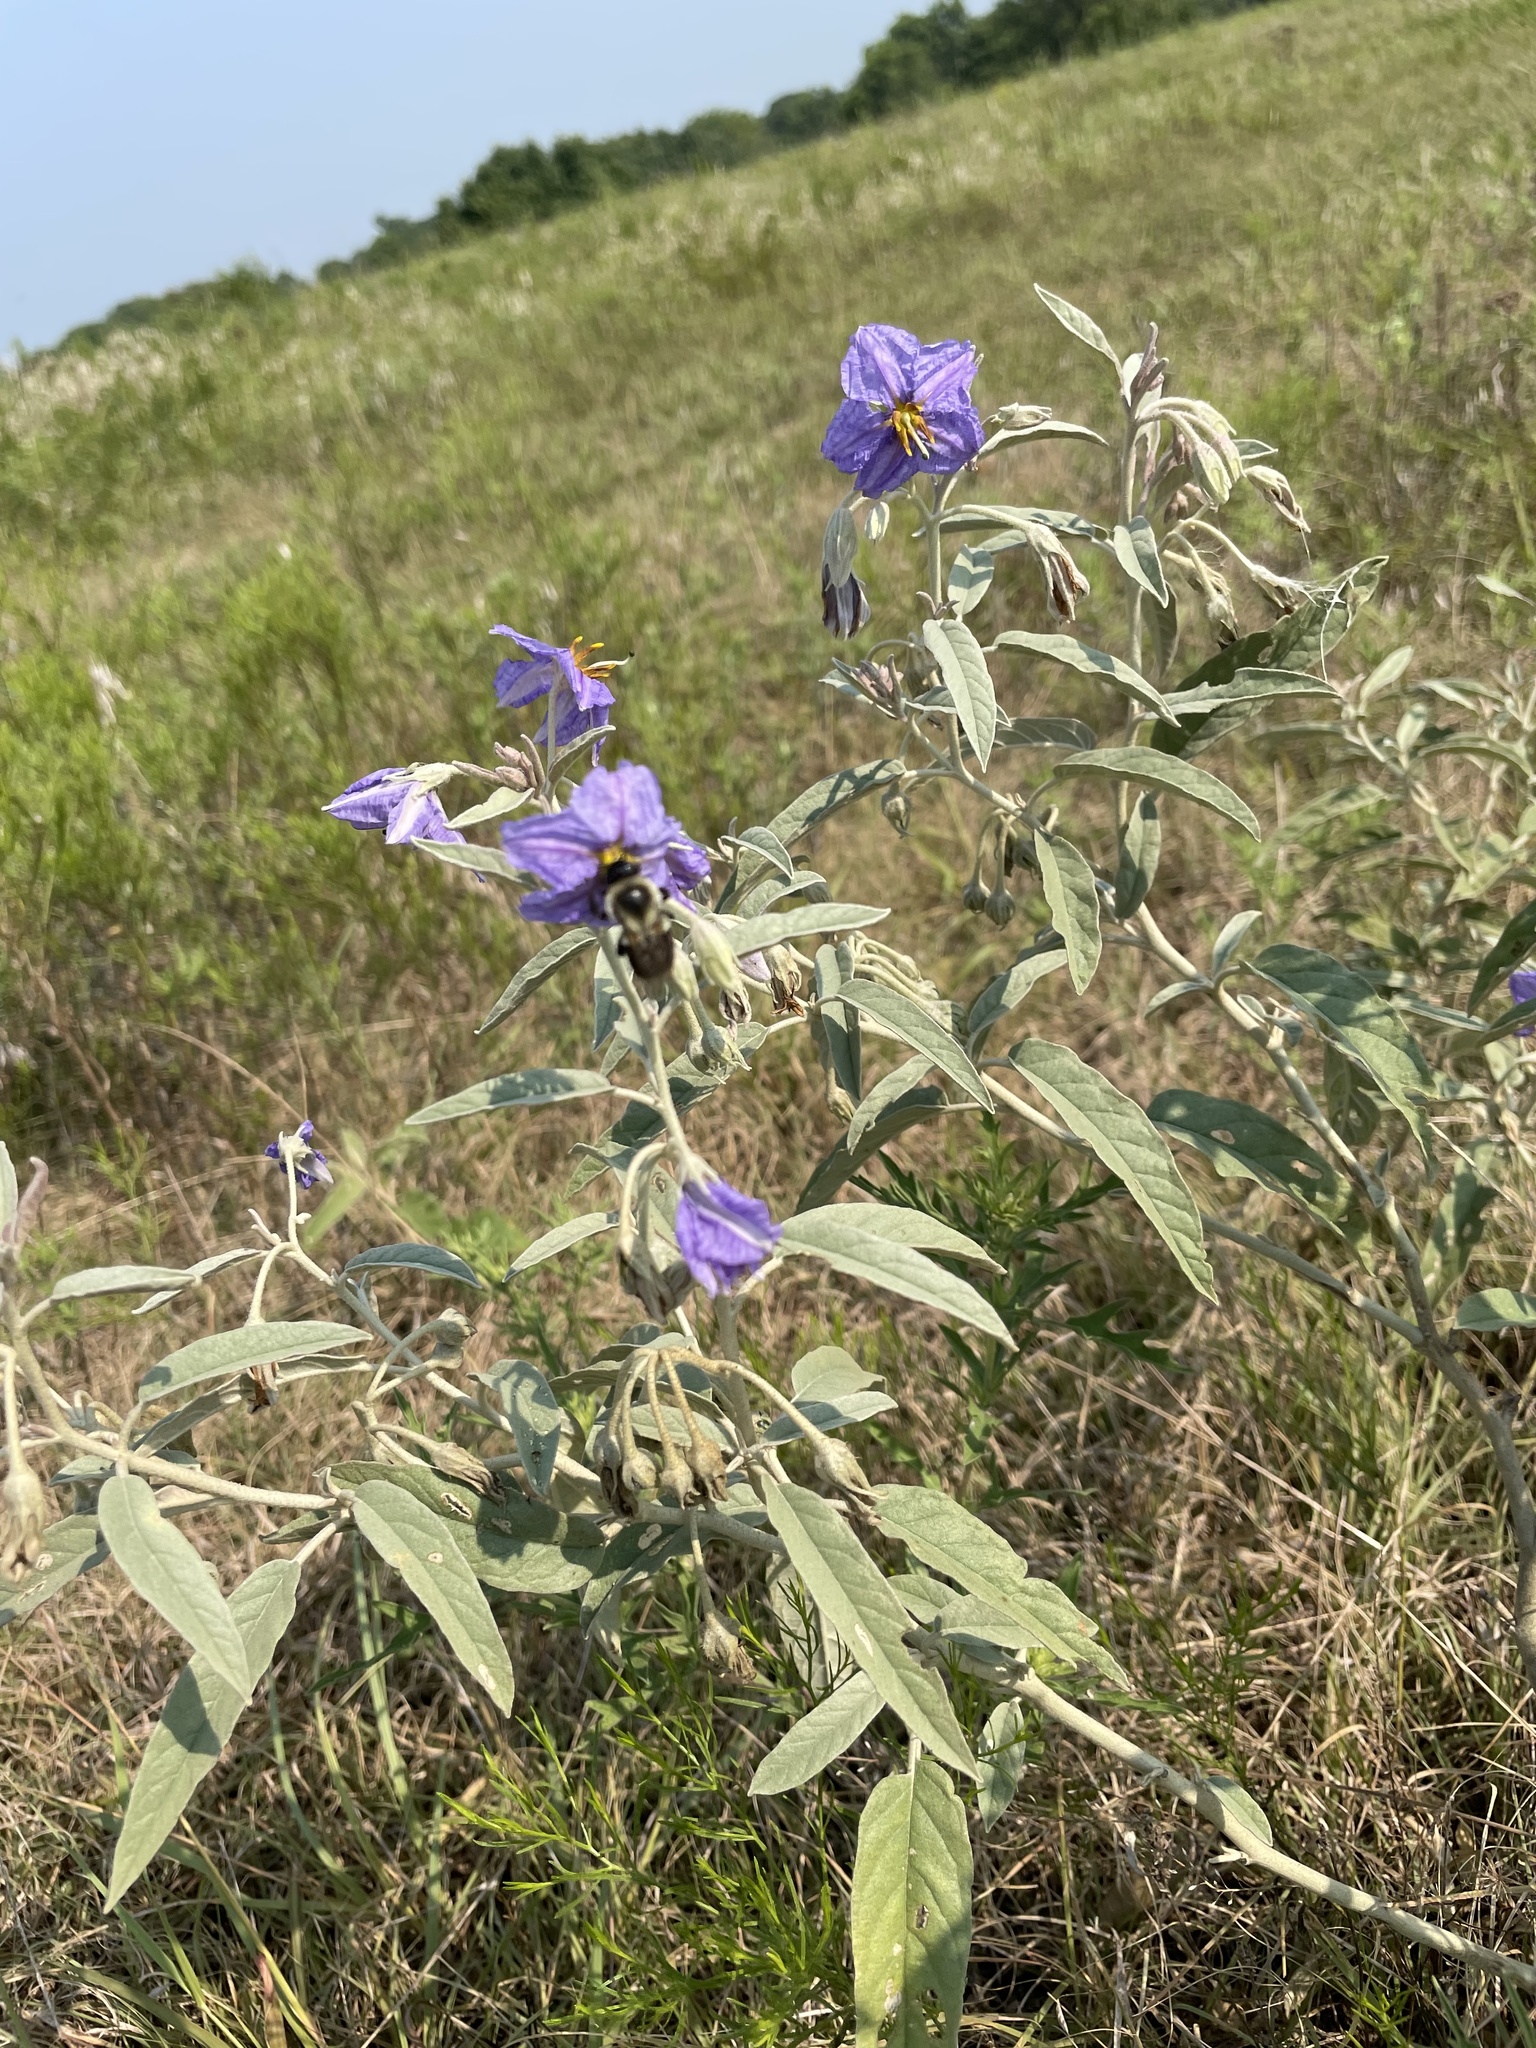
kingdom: Plantae
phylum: Tracheophyta
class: Magnoliopsida
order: Solanales
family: Solanaceae
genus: Solanum
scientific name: Solanum elaeagnifolium
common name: Silverleaf nightshade
